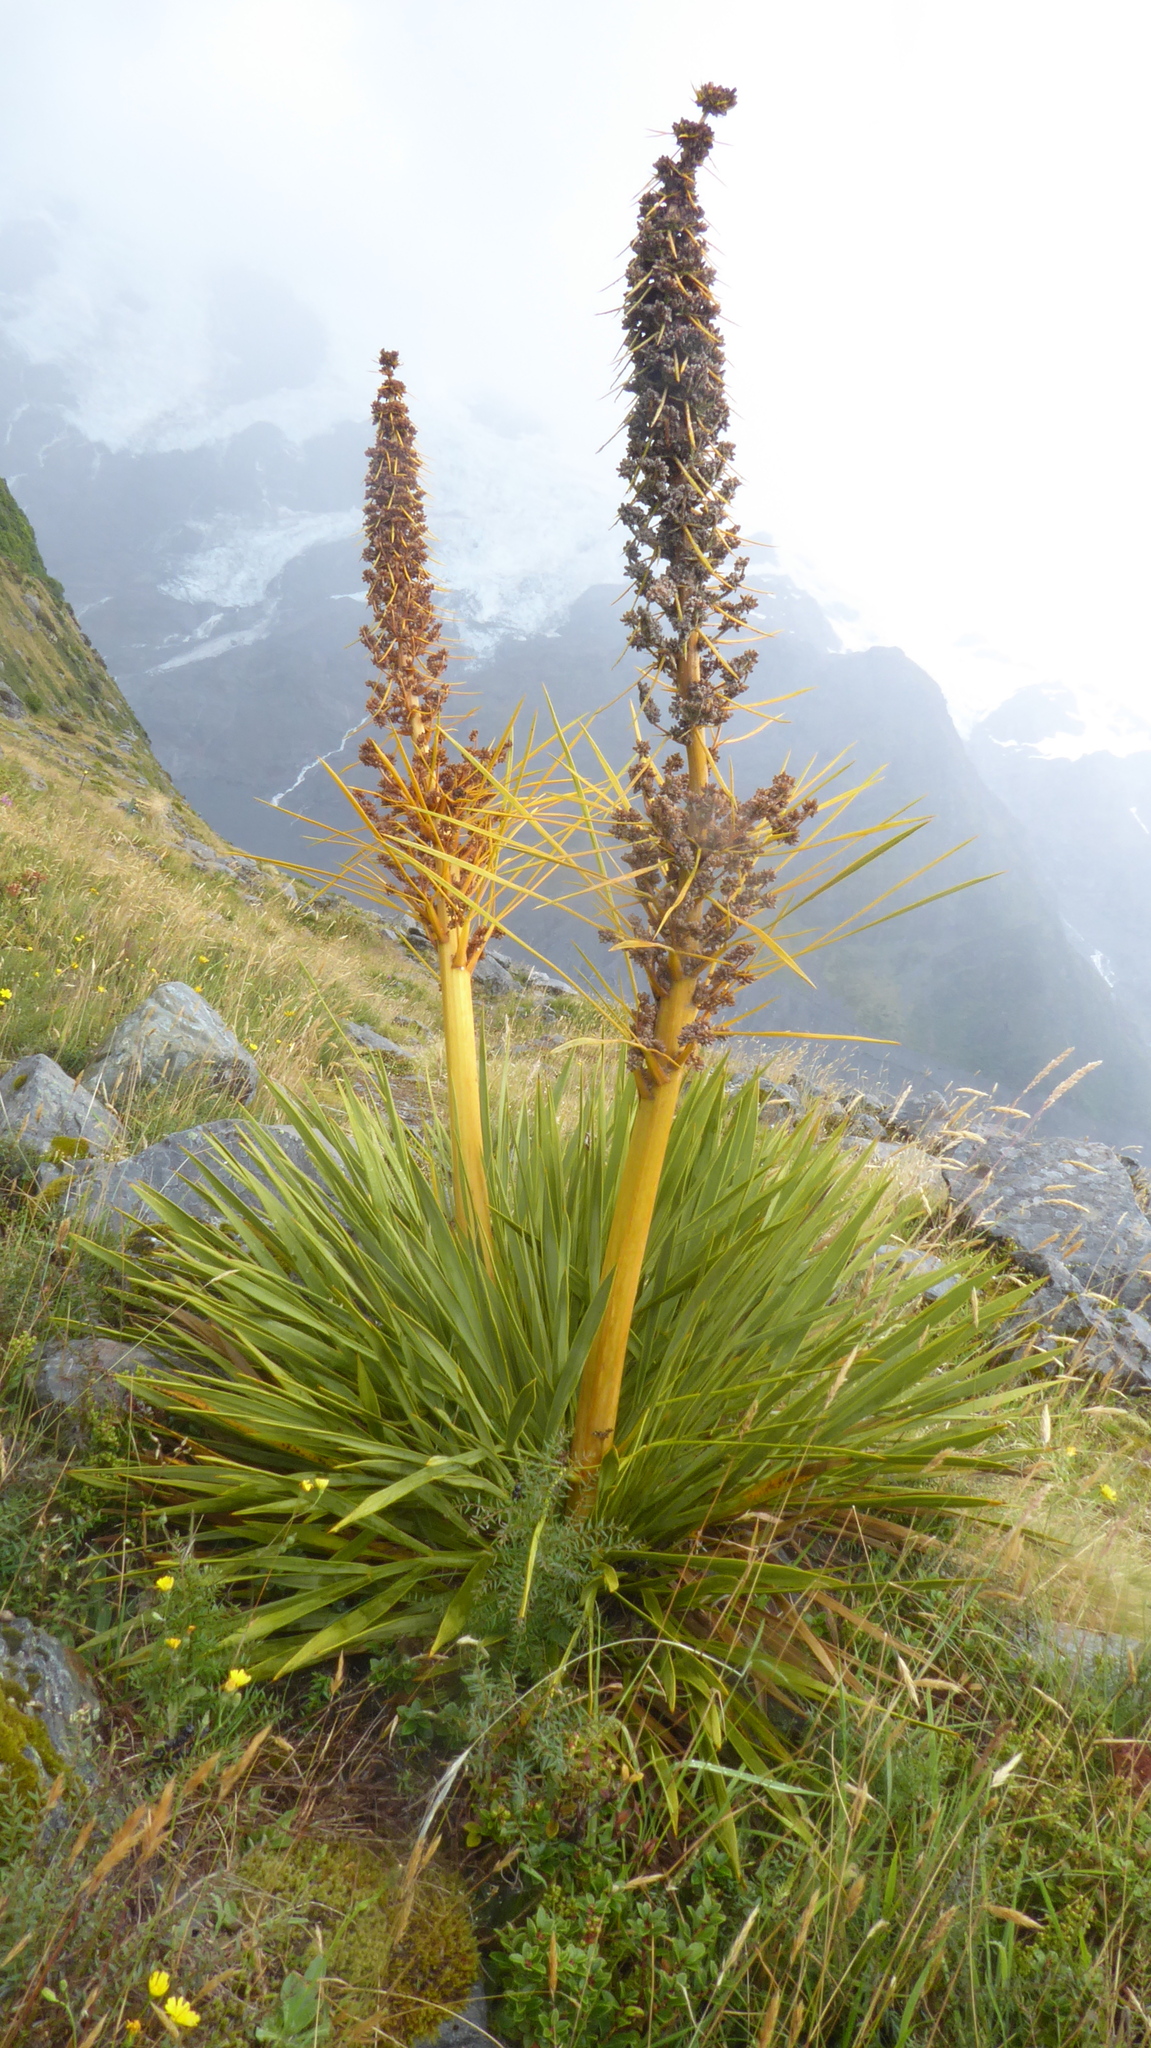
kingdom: Plantae
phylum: Tracheophyta
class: Magnoliopsida
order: Apiales
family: Apiaceae
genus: Aciphylla
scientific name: Aciphylla aurea
